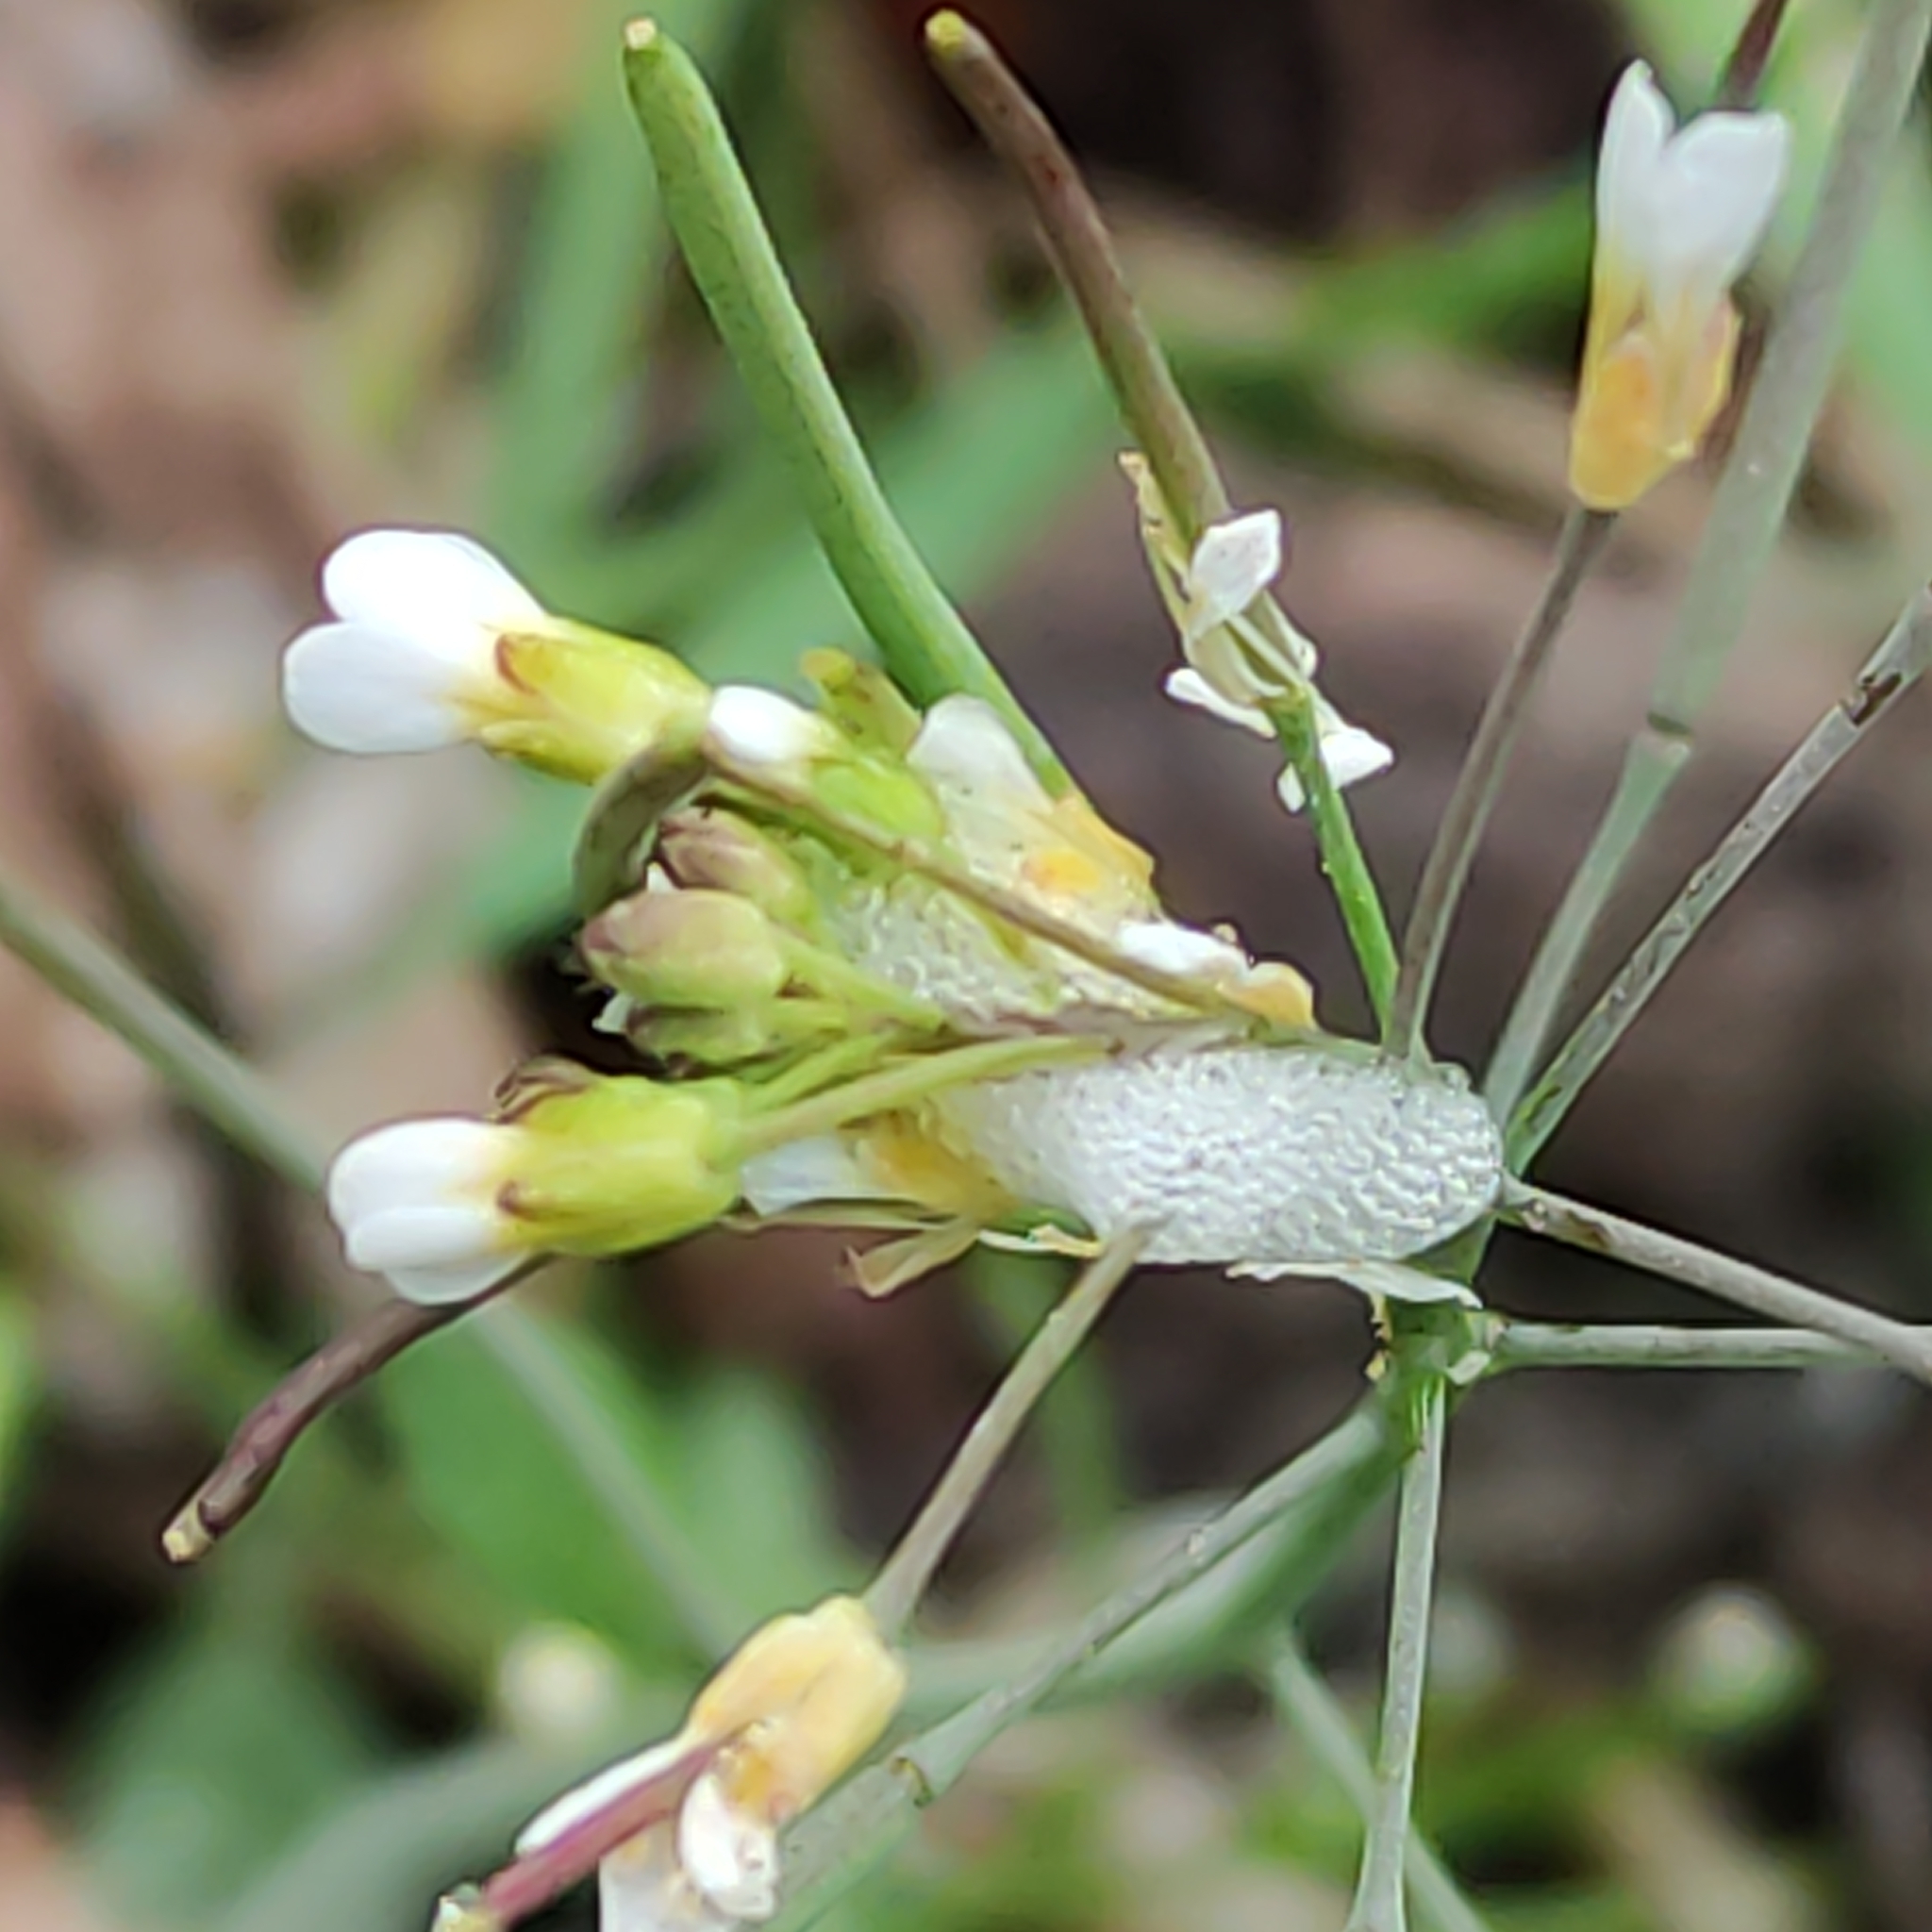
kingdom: Plantae
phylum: Tracheophyta
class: Magnoliopsida
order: Brassicales
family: Brassicaceae
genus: Arabidopsis
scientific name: Arabidopsis thaliana
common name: Thale cress
